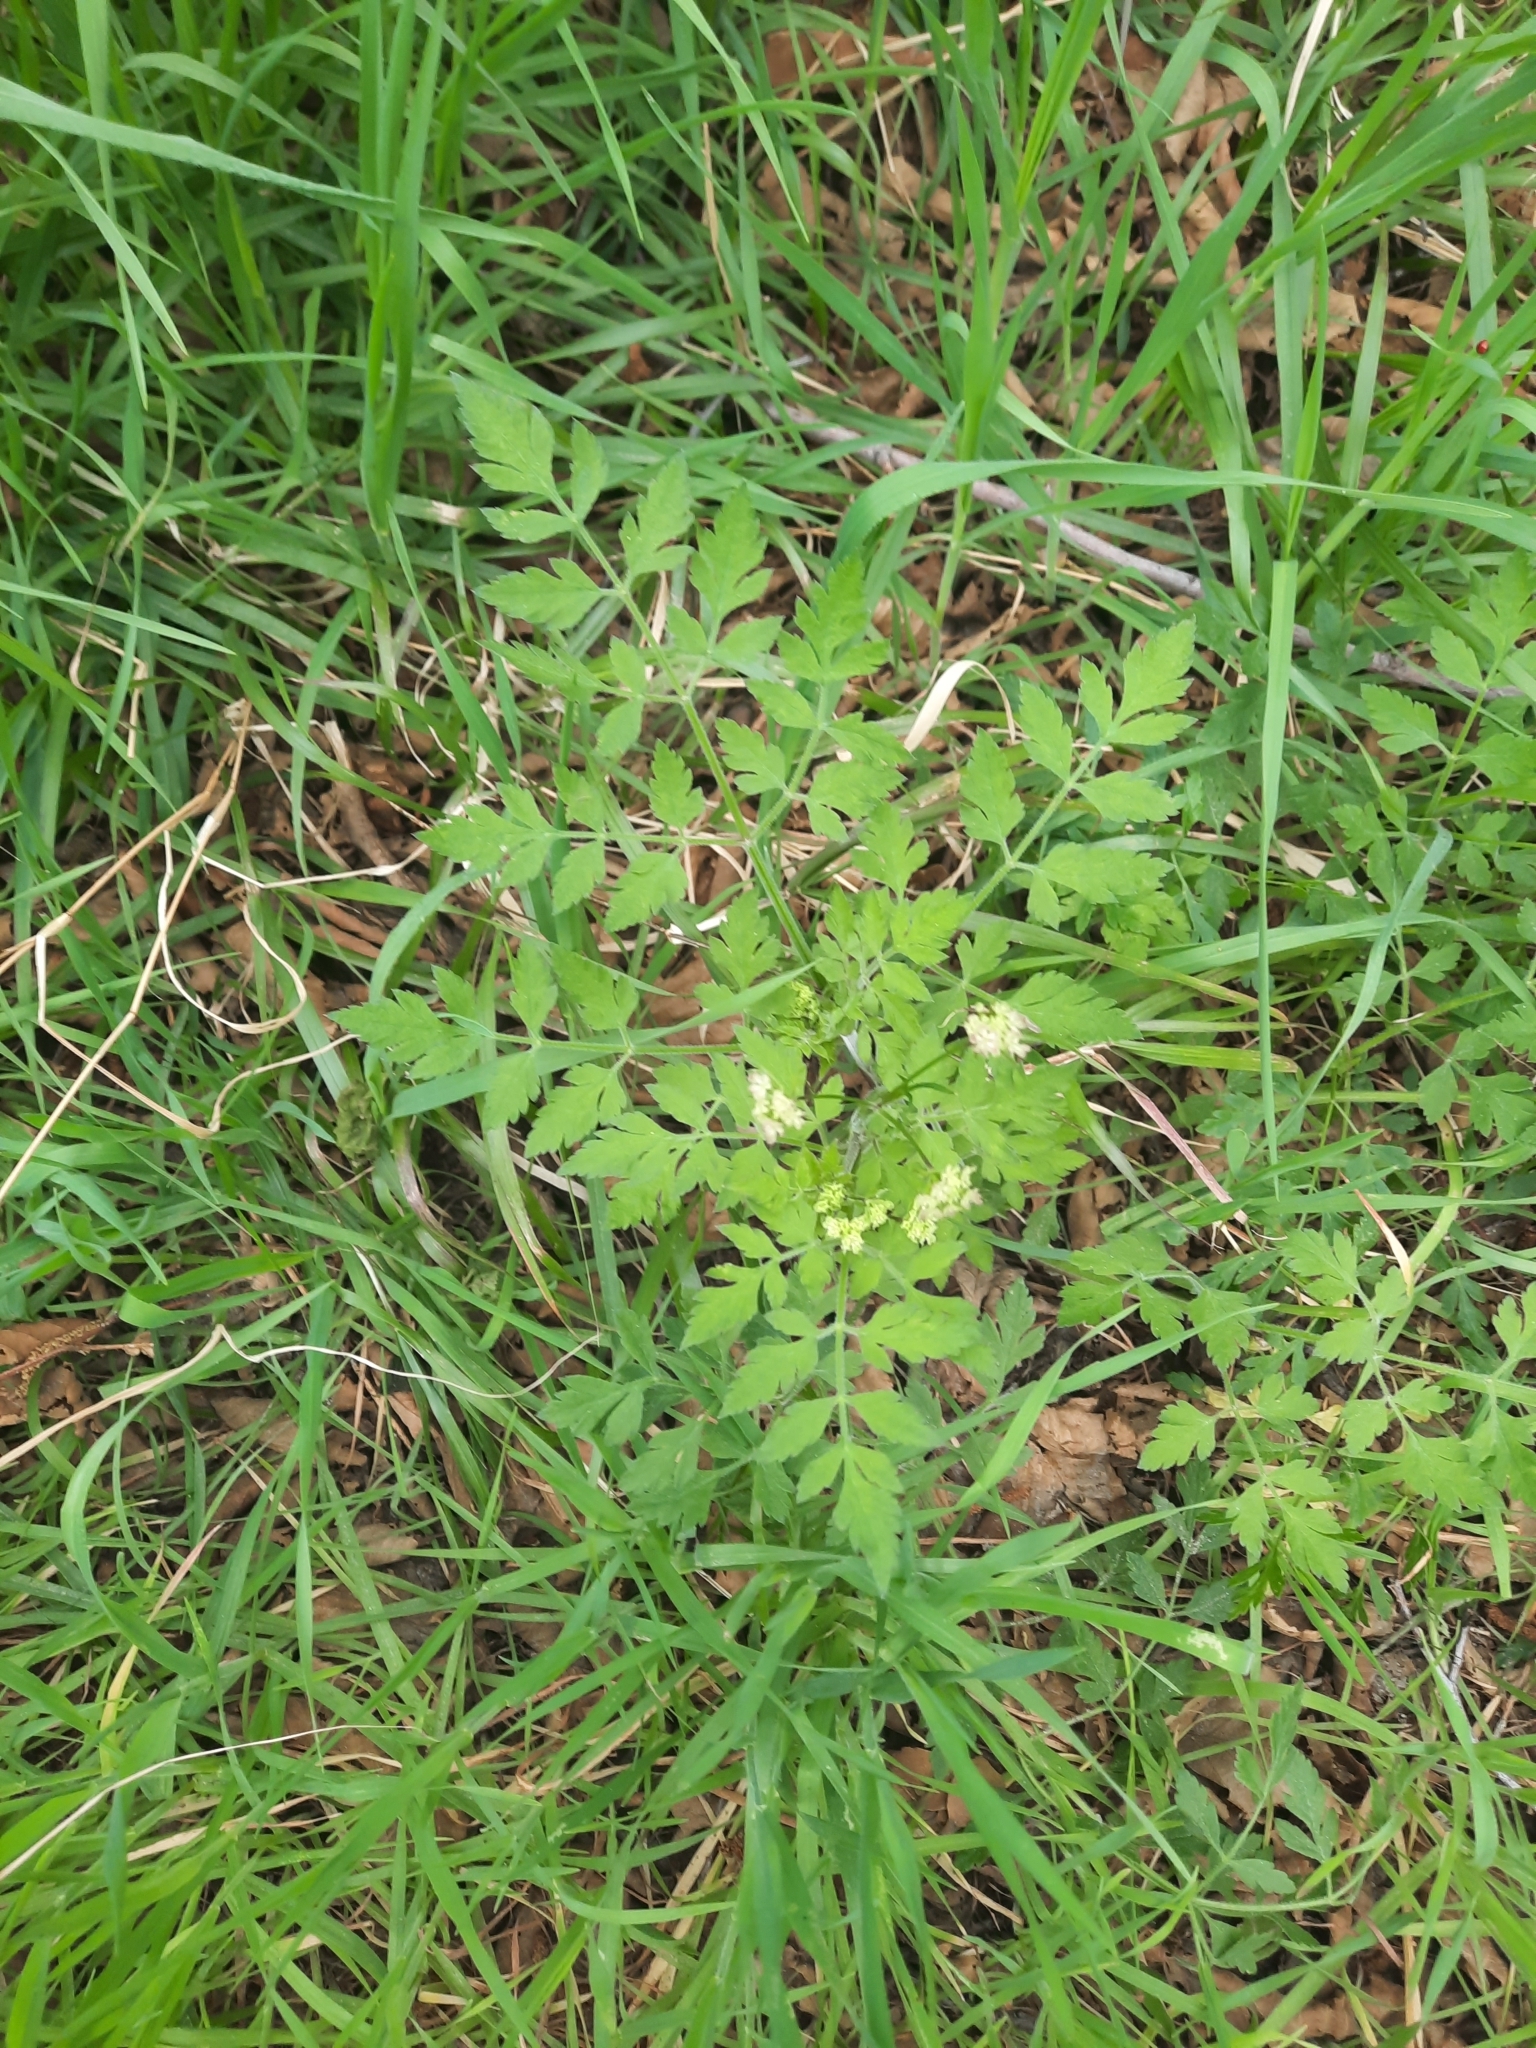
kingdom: Plantae
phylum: Tracheophyta
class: Magnoliopsida
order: Apiales
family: Apiaceae
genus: Osmorhiza
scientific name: Osmorhiza brachypoda
